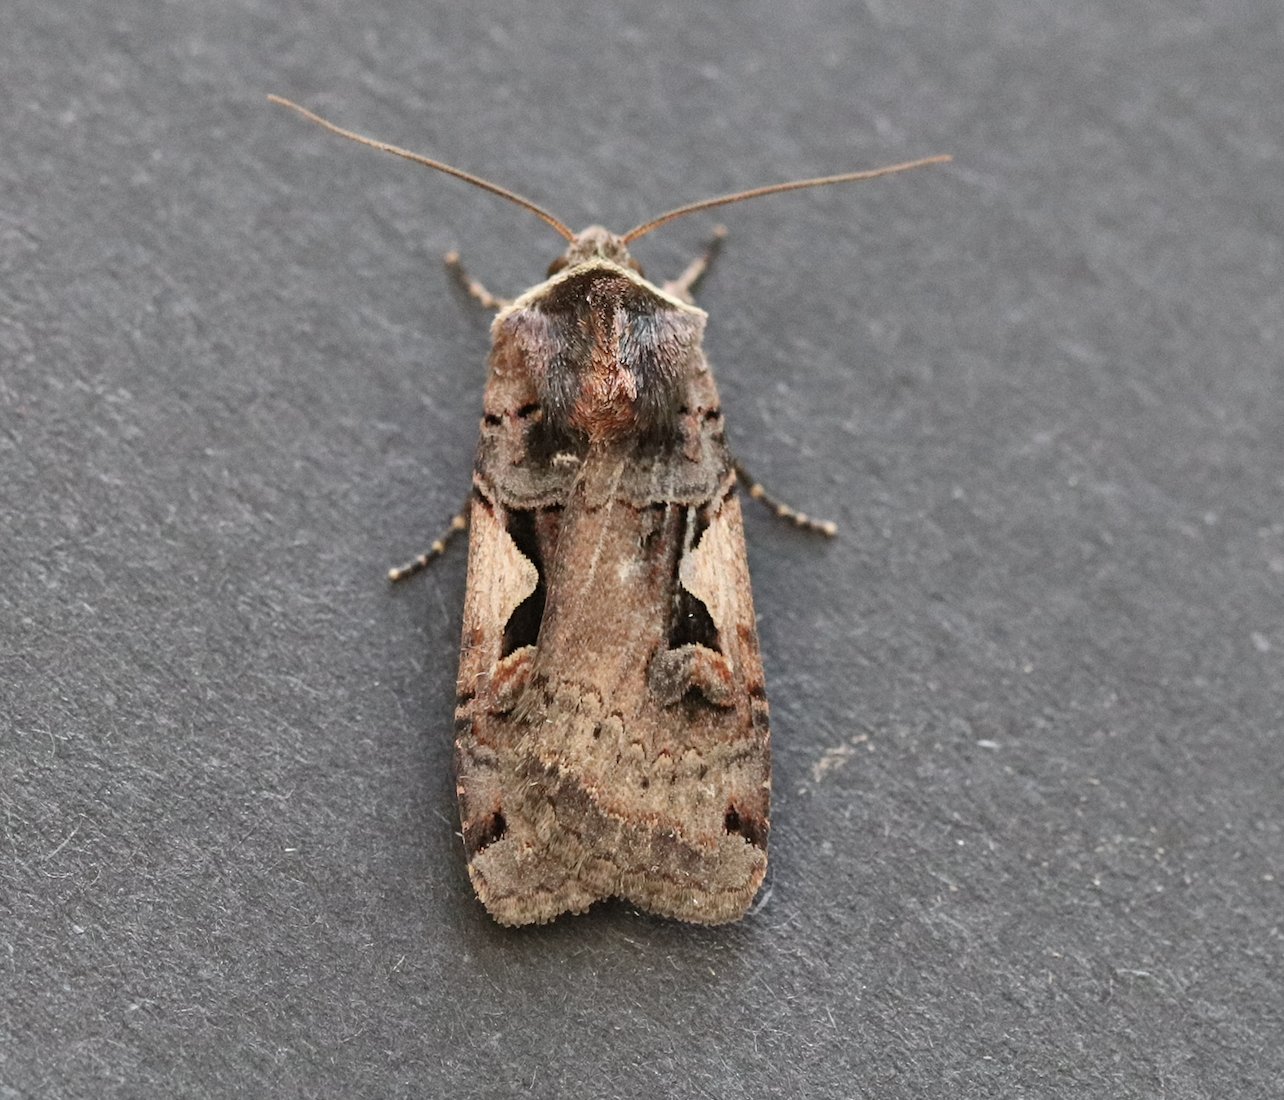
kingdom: Animalia
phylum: Arthropoda
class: Insecta
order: Lepidoptera
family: Noctuidae
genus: Xestia
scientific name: Xestia c-nigrum
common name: Setaceous hebrew character
